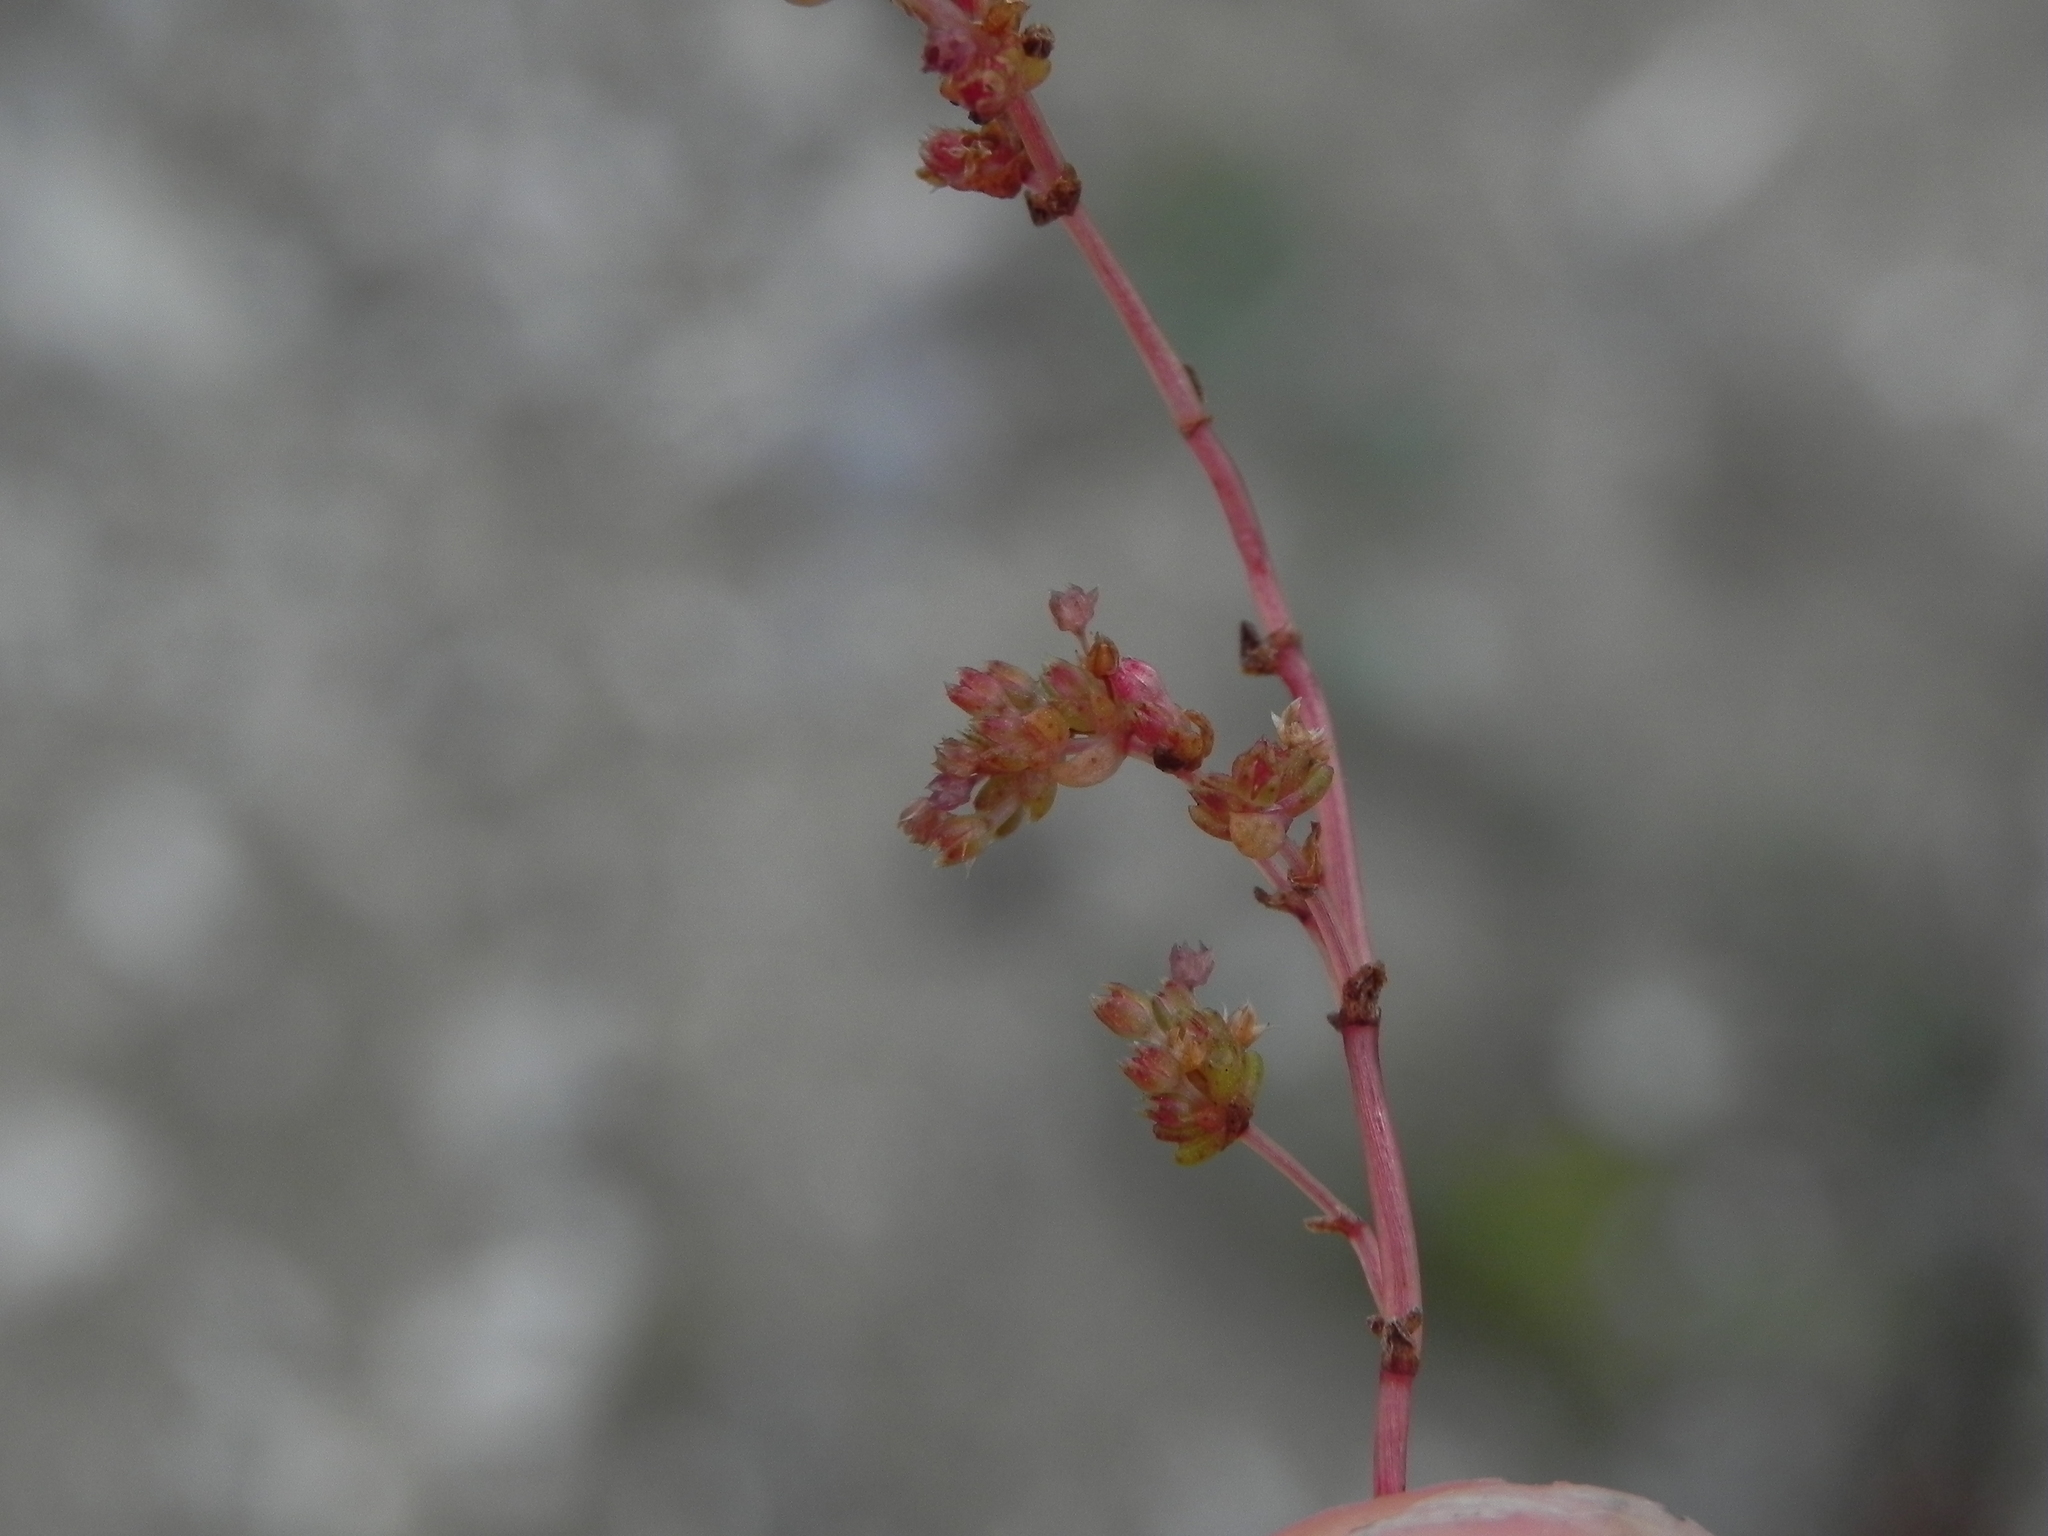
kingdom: Plantae
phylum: Tracheophyta
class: Magnoliopsida
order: Saxifragales
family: Crassulaceae
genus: Crassula
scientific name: Crassula connata
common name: Erect pygmyweed
